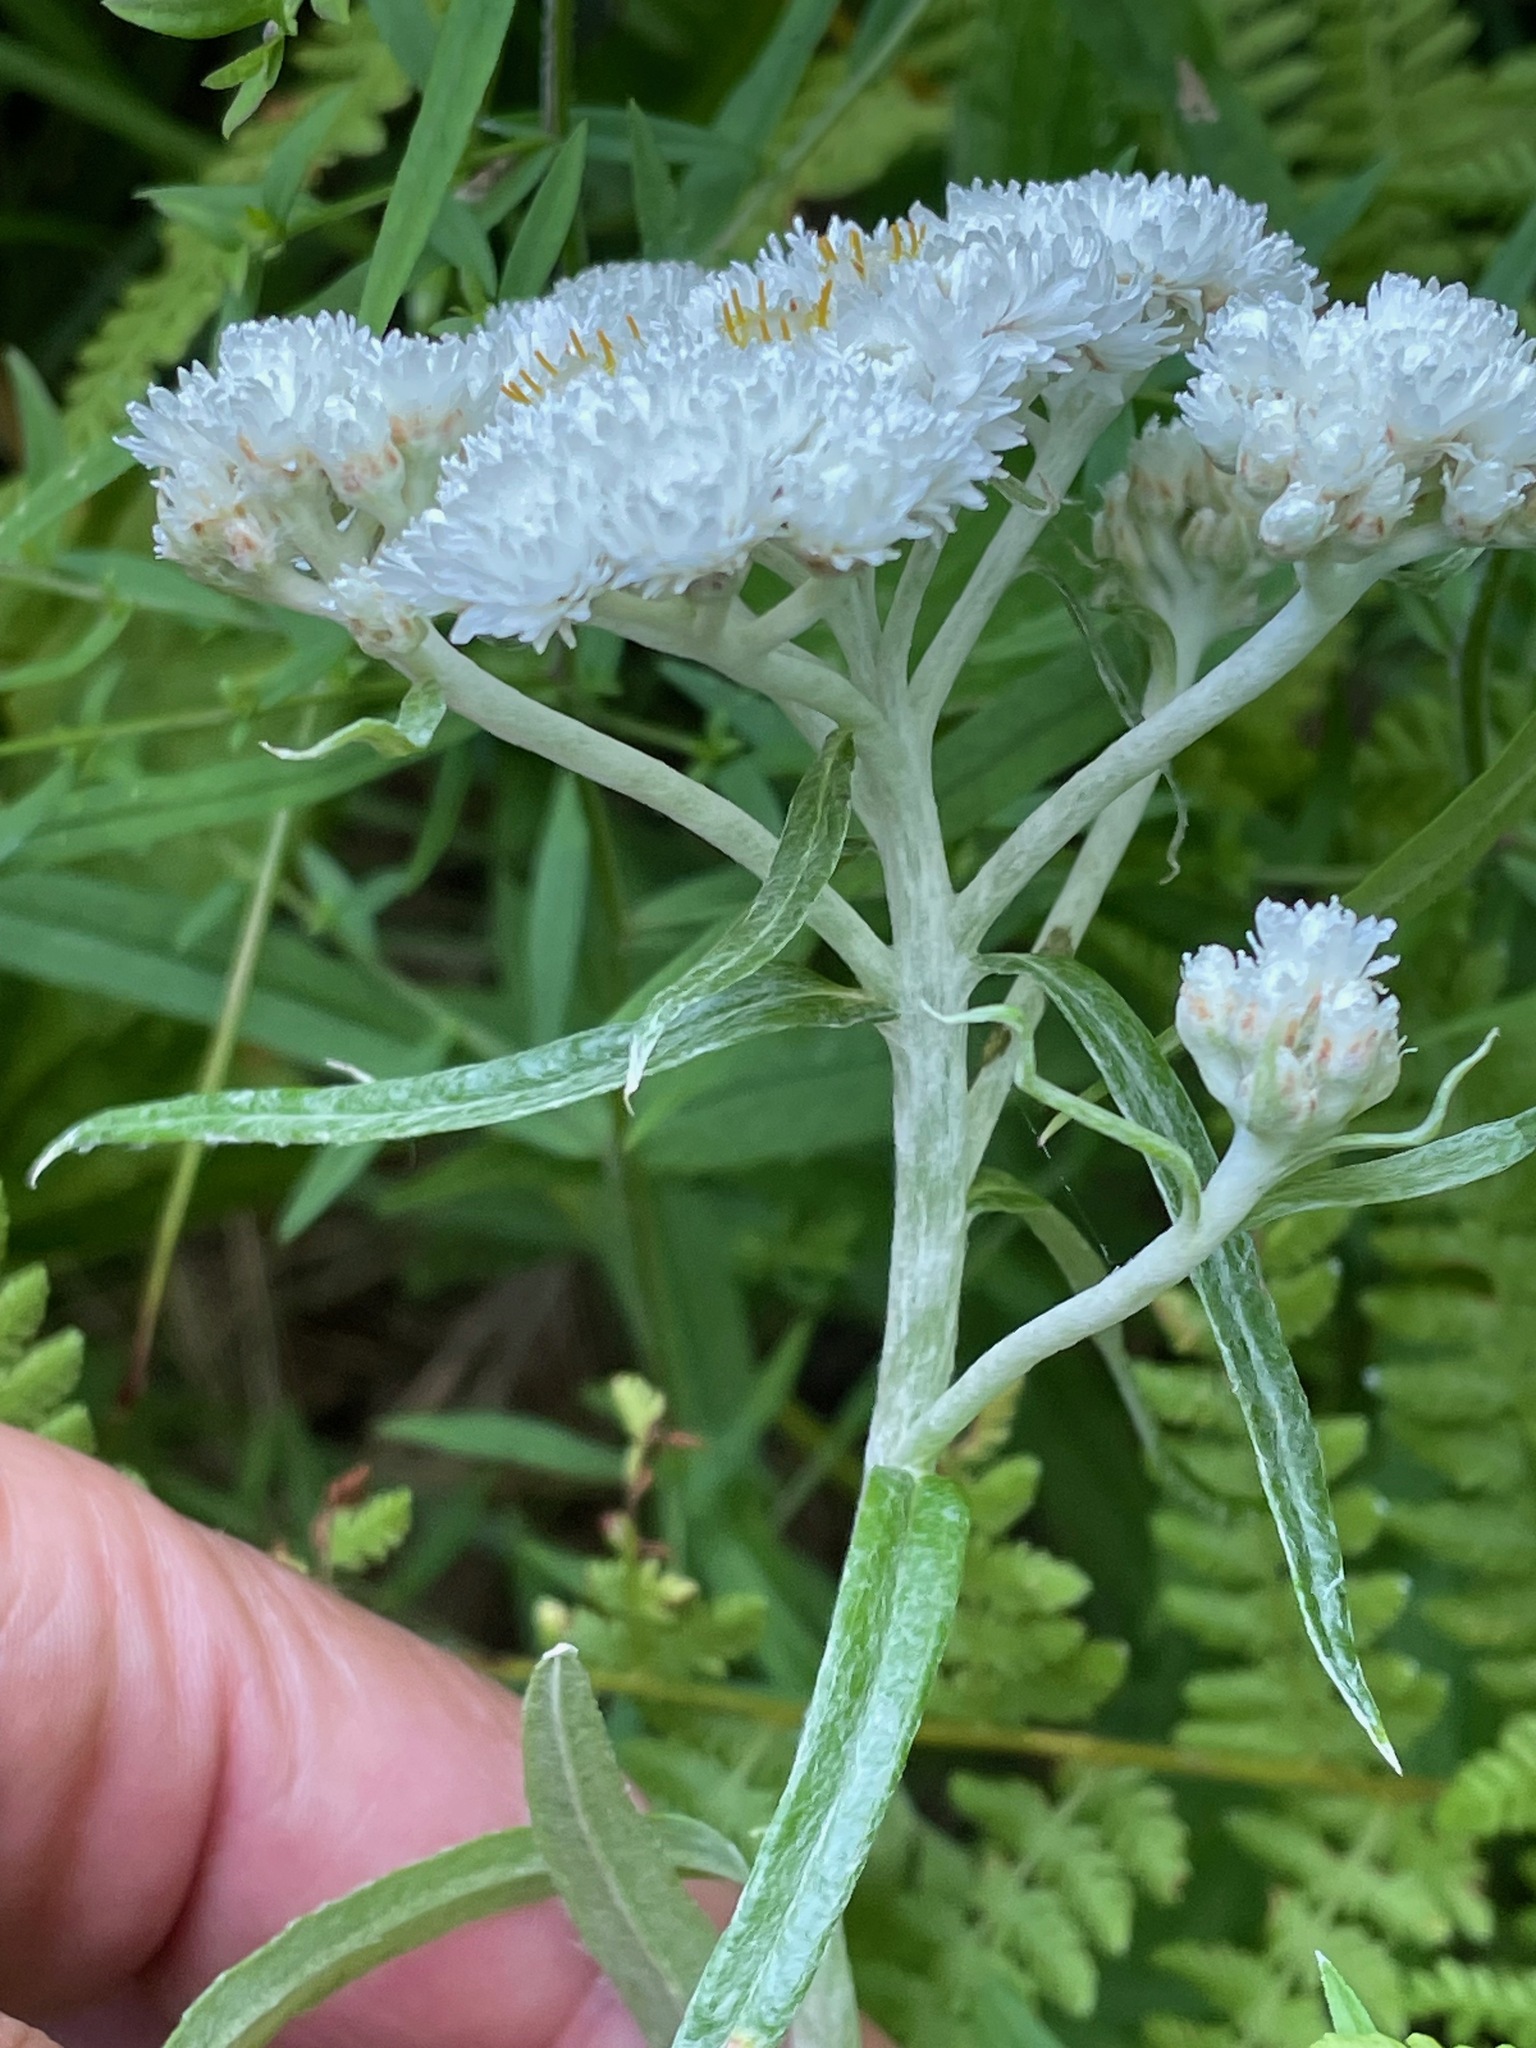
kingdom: Plantae
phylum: Tracheophyta
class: Magnoliopsida
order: Asterales
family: Asteraceae
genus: Anaphalis
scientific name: Anaphalis margaritacea
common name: Pearly everlasting
